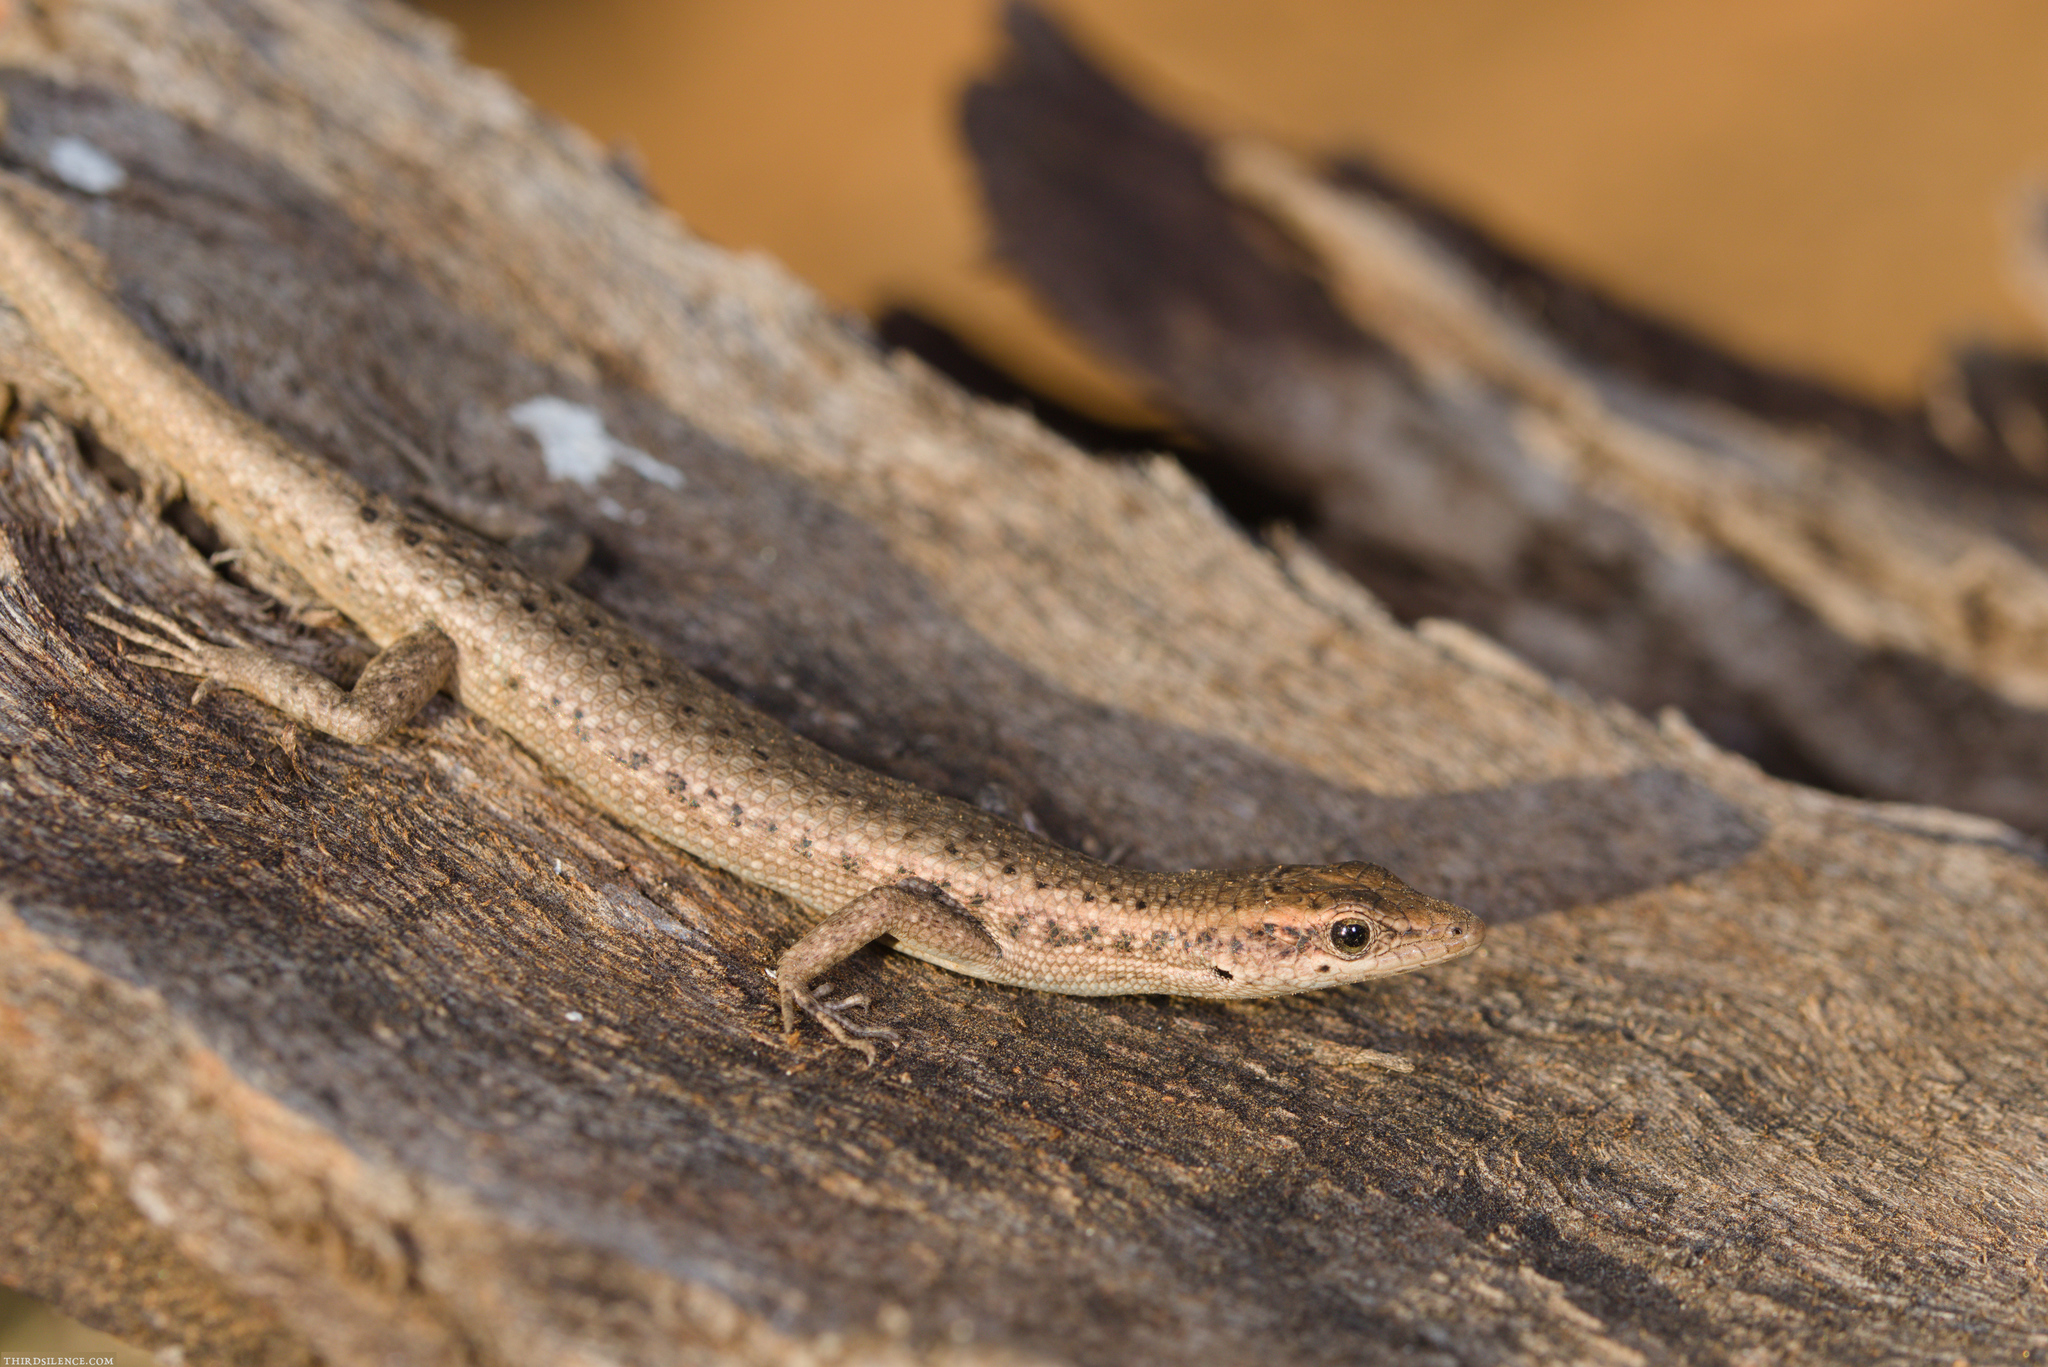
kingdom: Animalia
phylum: Chordata
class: Squamata
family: Scincidae
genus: Cryptoblepharus
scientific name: Cryptoblepharus australis
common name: Inland snake-eyed skink
